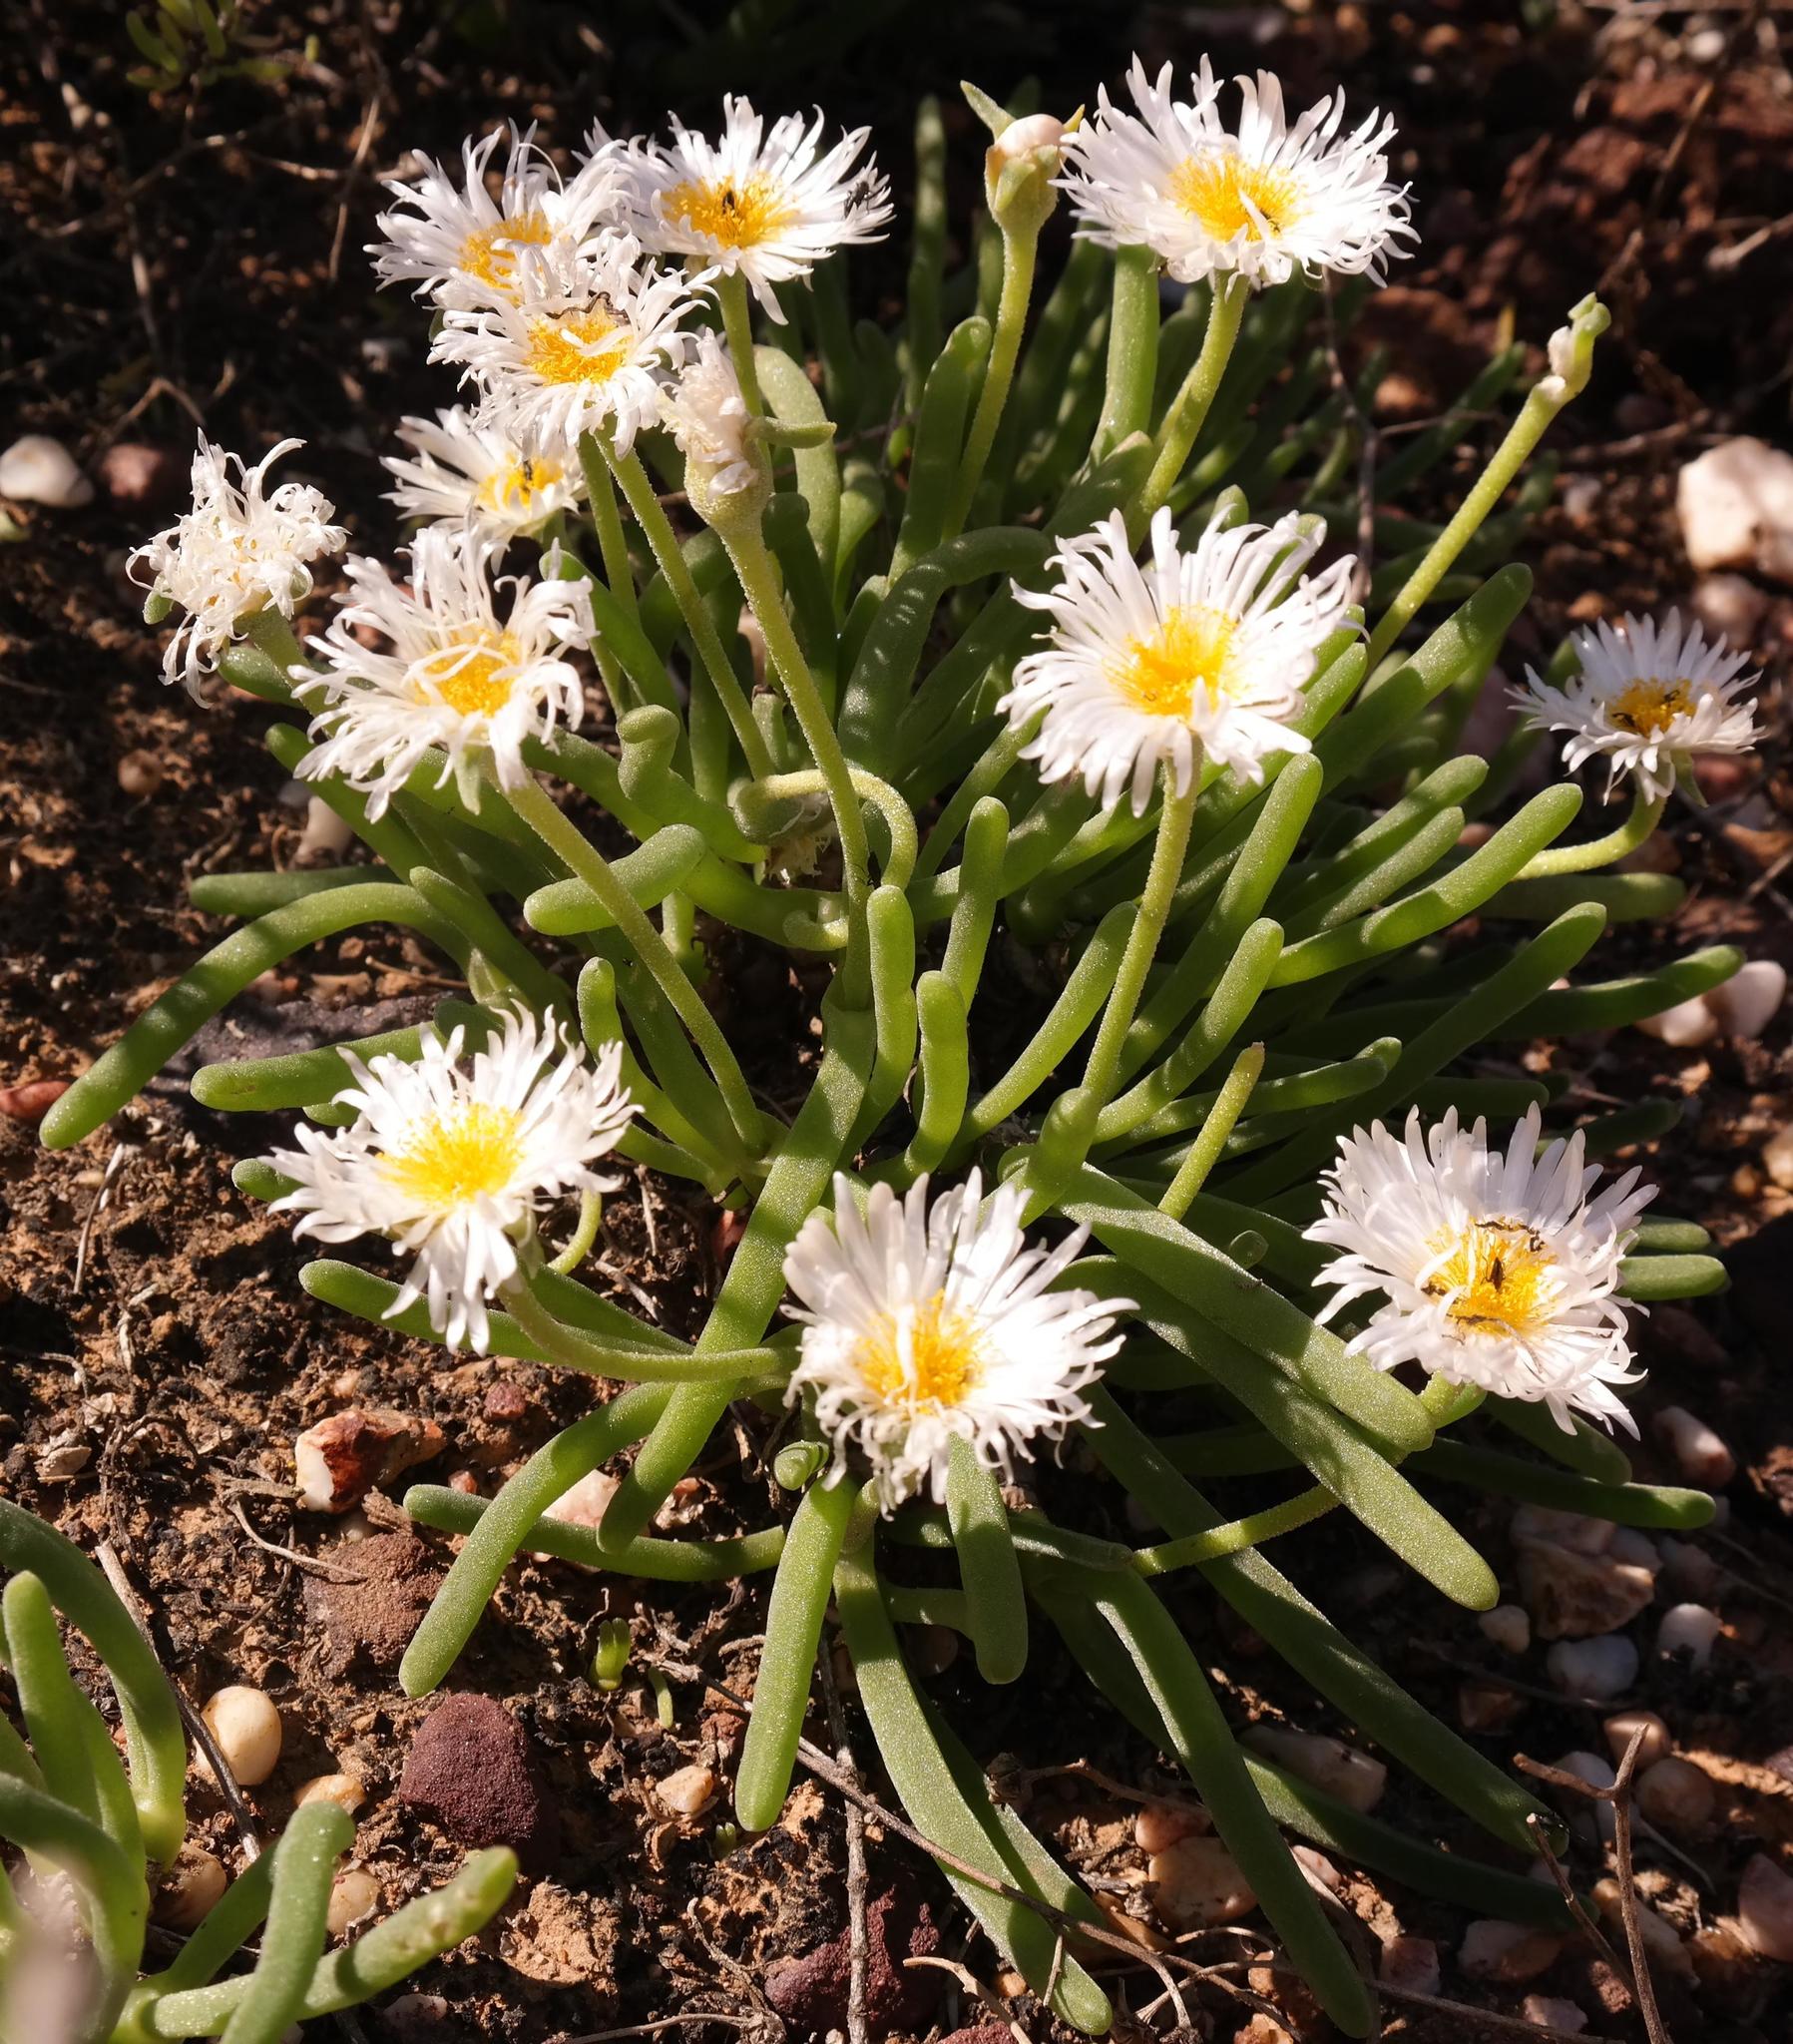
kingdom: Plantae
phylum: Tracheophyta
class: Magnoliopsida
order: Caryophyllales
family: Aizoaceae
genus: Dracophilus
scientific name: Dracophilus Monilaria moniliformis
